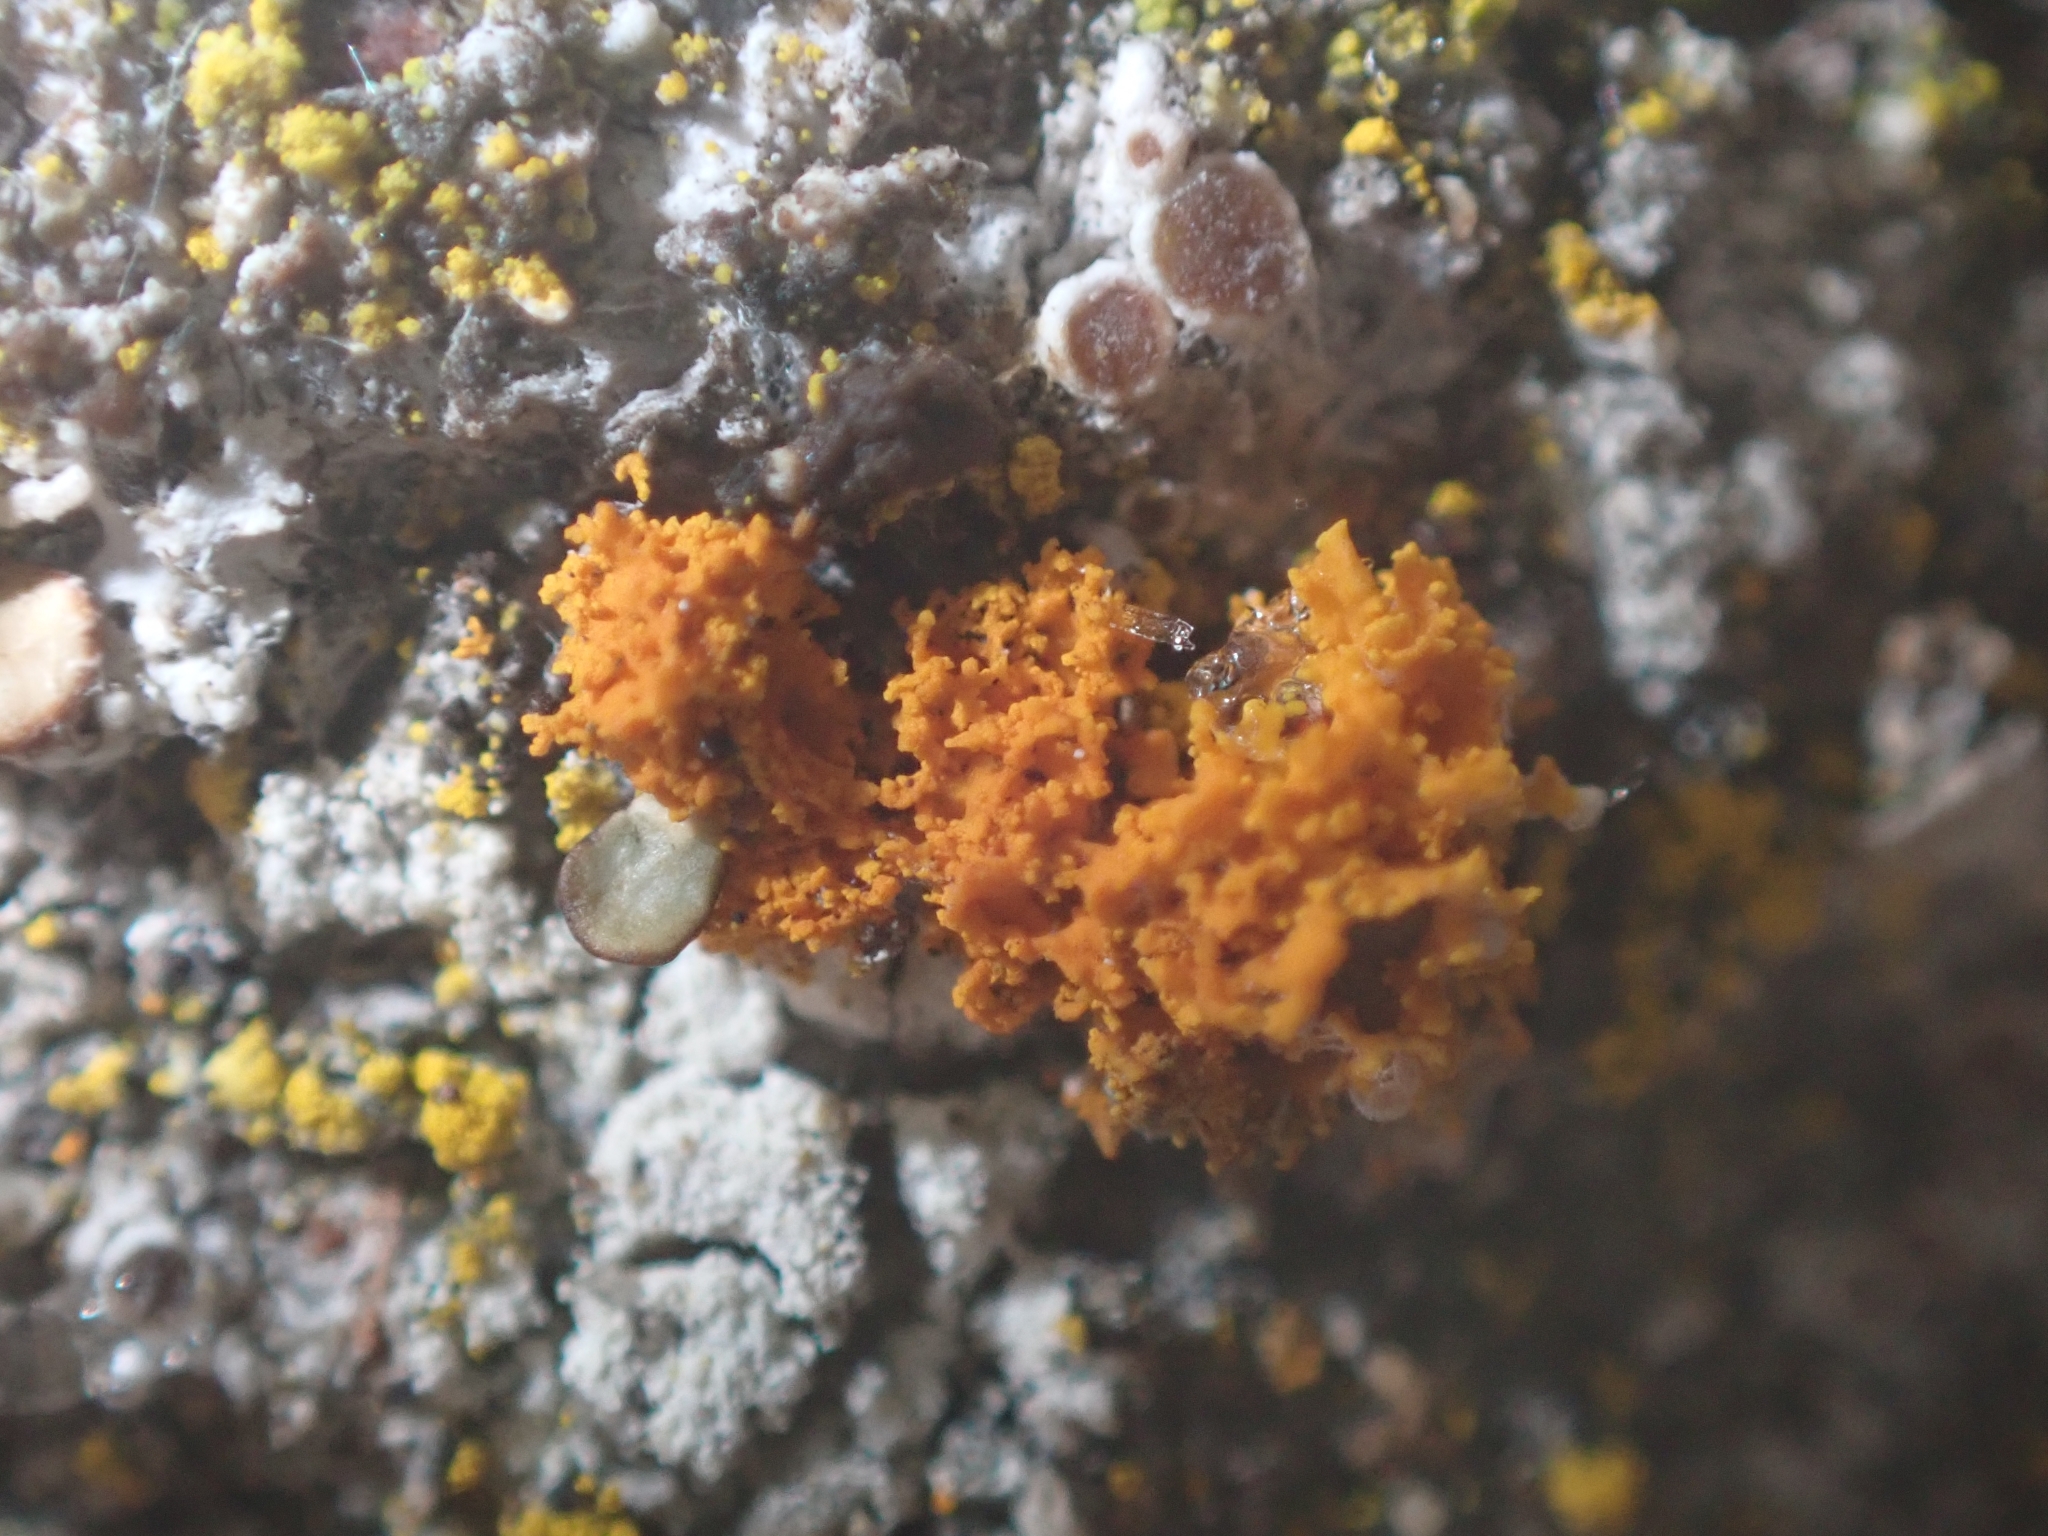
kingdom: Fungi
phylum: Ascomycota
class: Lecanoromycetes
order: Teloschistales
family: Teloschistaceae
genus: Polycauliona
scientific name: Polycauliona candelaria
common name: Shrubby sunburst lichen
